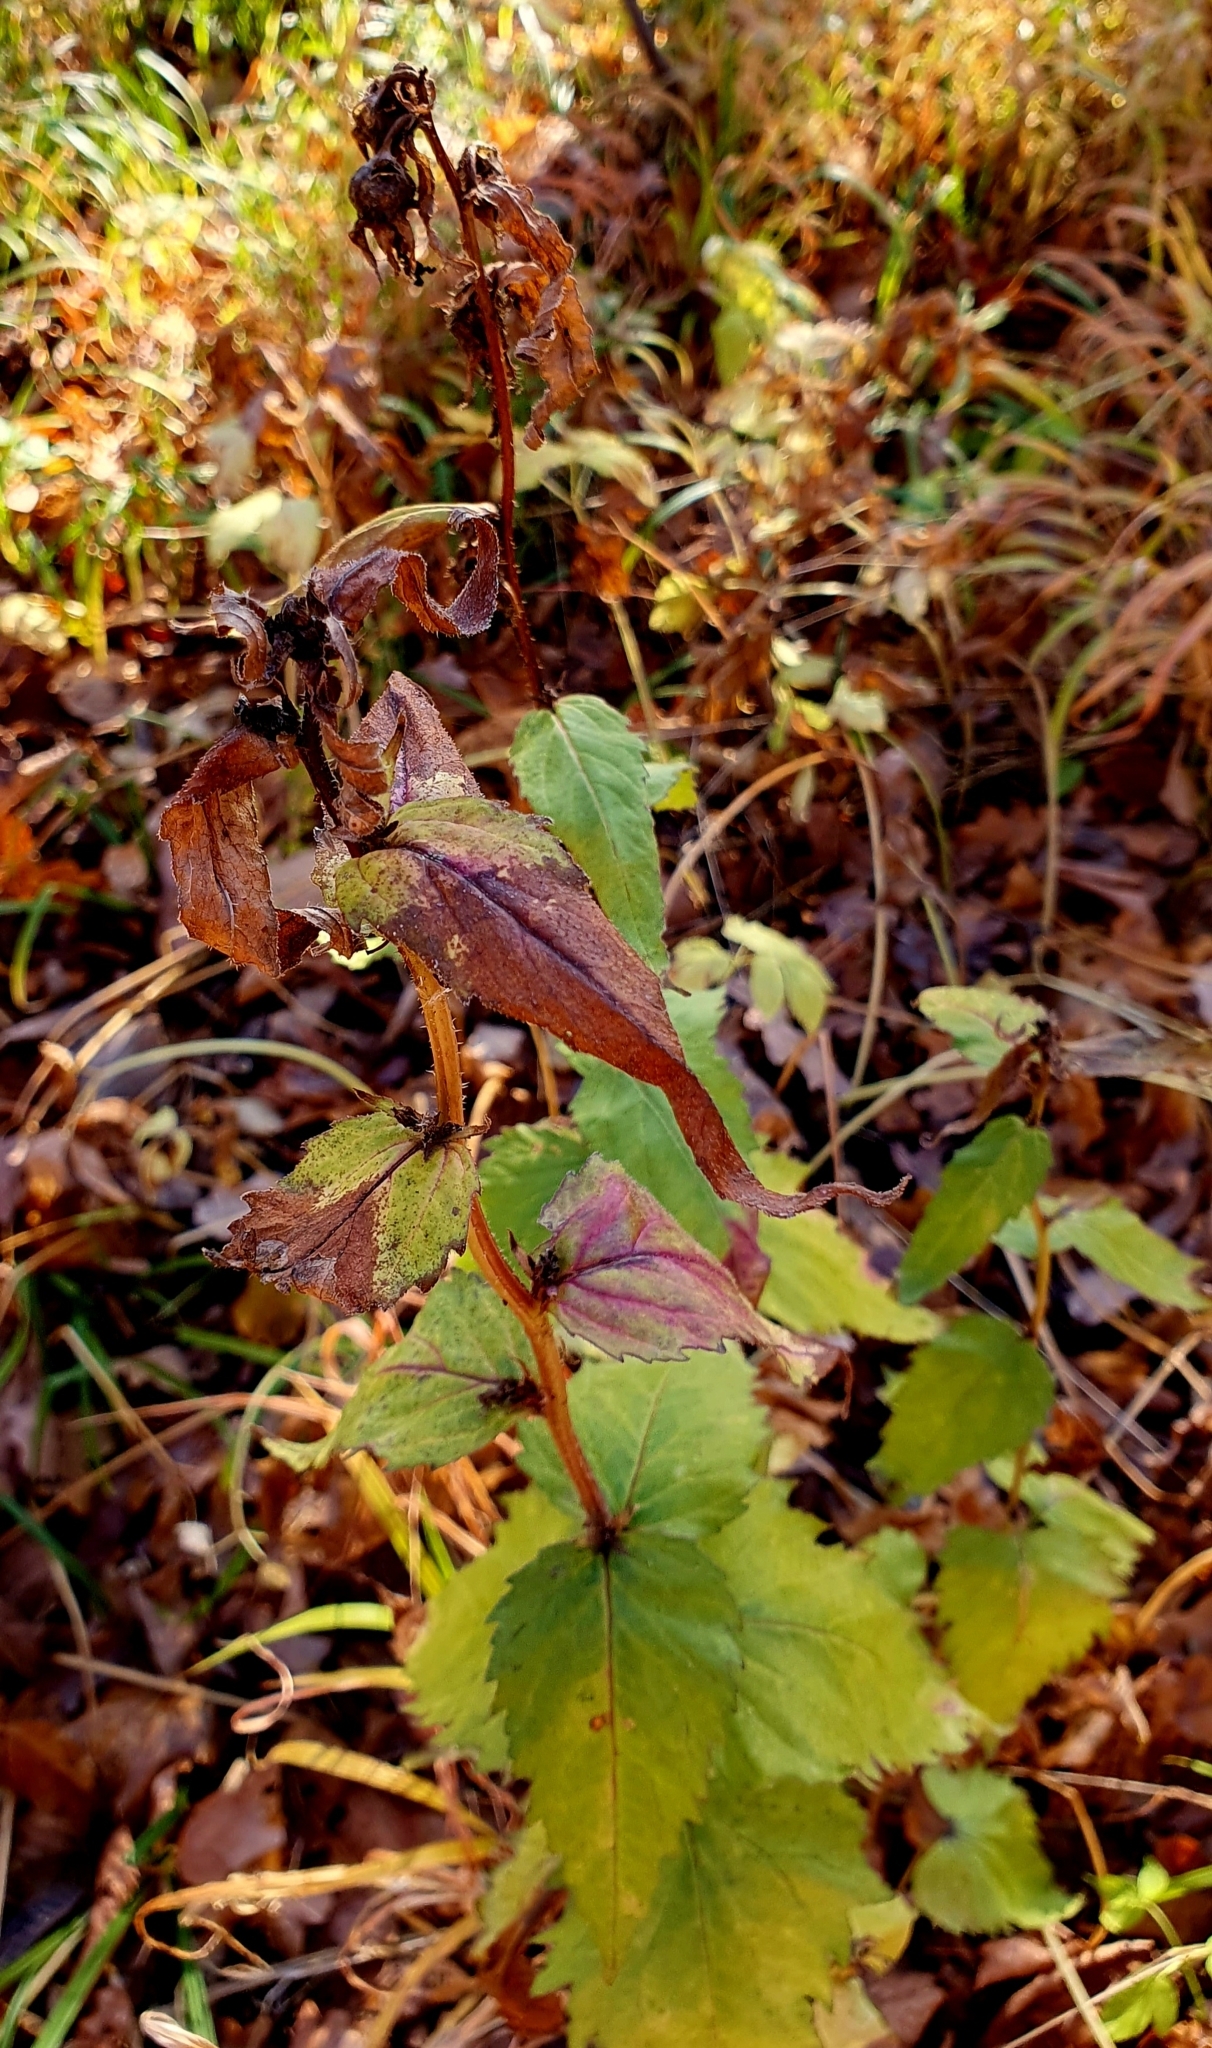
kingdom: Plantae
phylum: Tracheophyta
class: Magnoliopsida
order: Asterales
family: Campanulaceae
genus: Campanula
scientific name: Campanula trachelium
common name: Nettle-leaved bellflower
